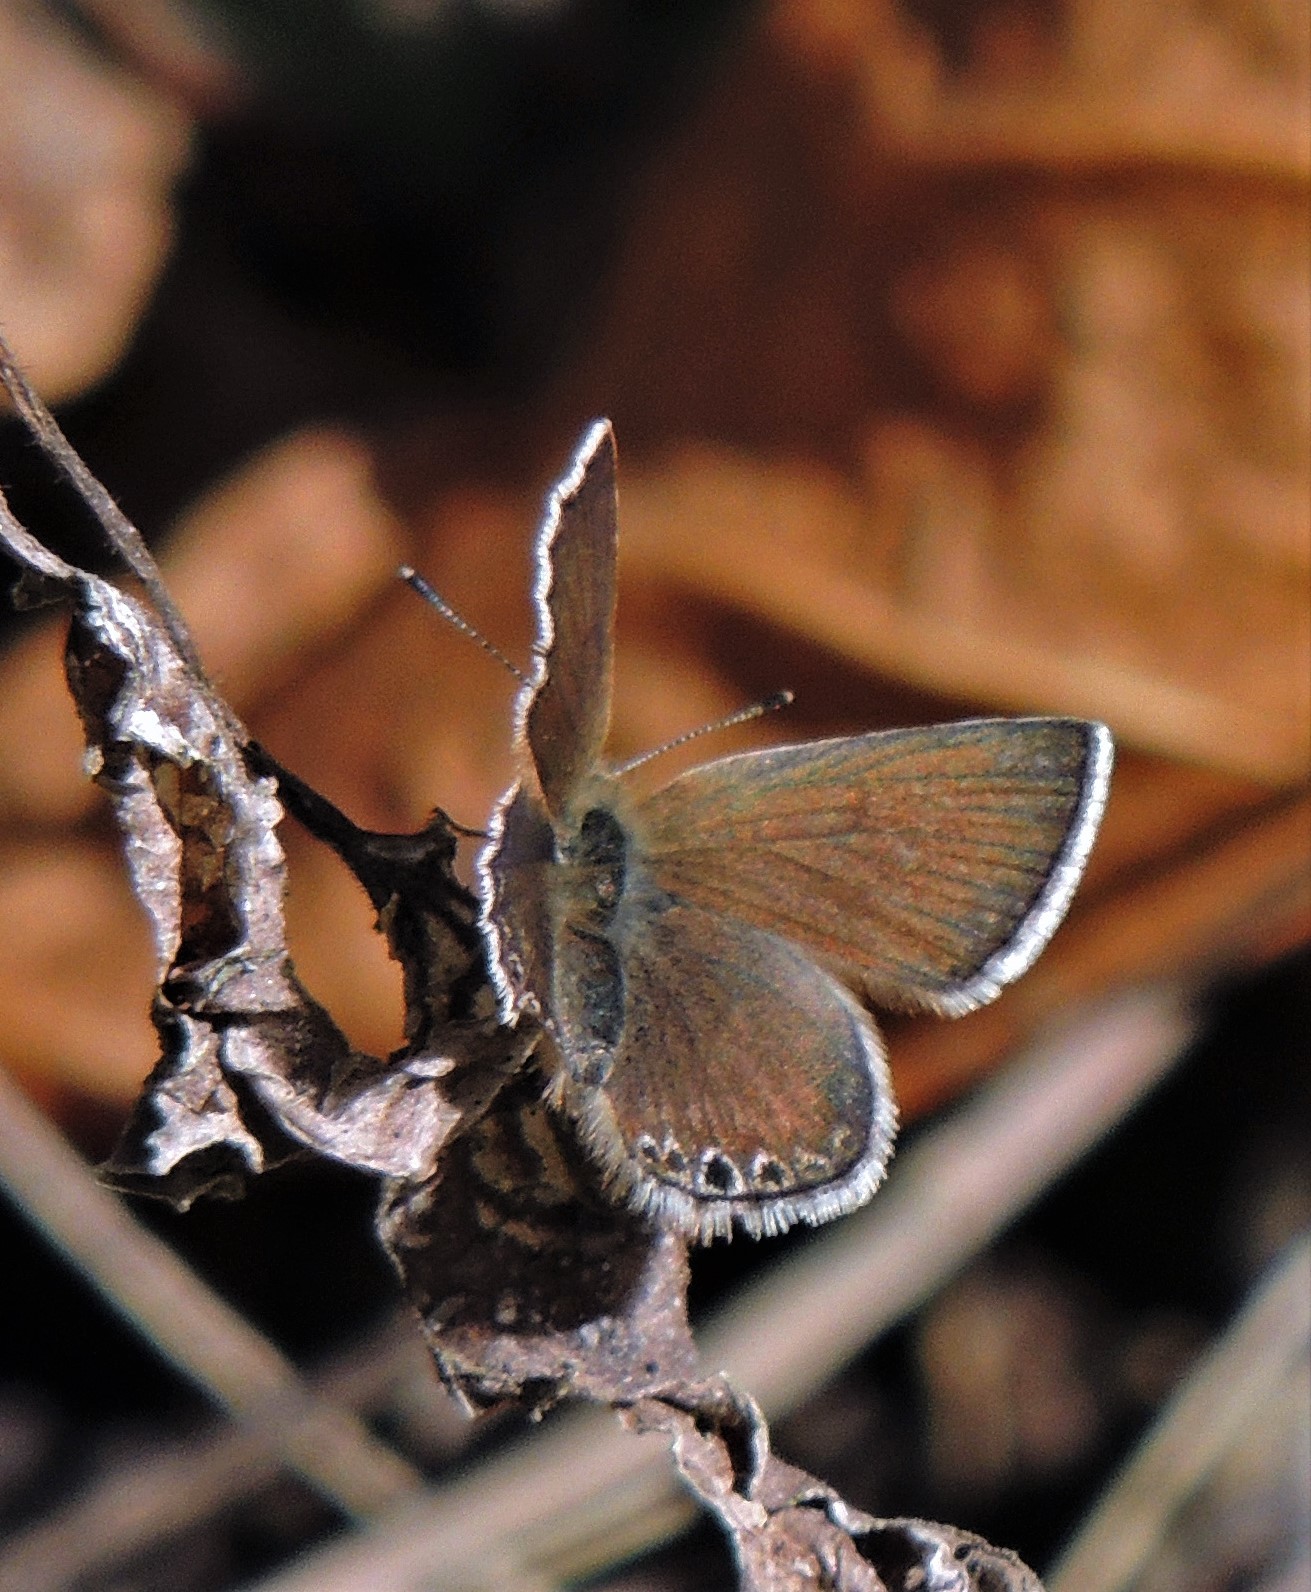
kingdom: Animalia
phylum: Arthropoda
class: Insecta
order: Lepidoptera
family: Lycaenidae
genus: Itylos
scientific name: Itylos moza
